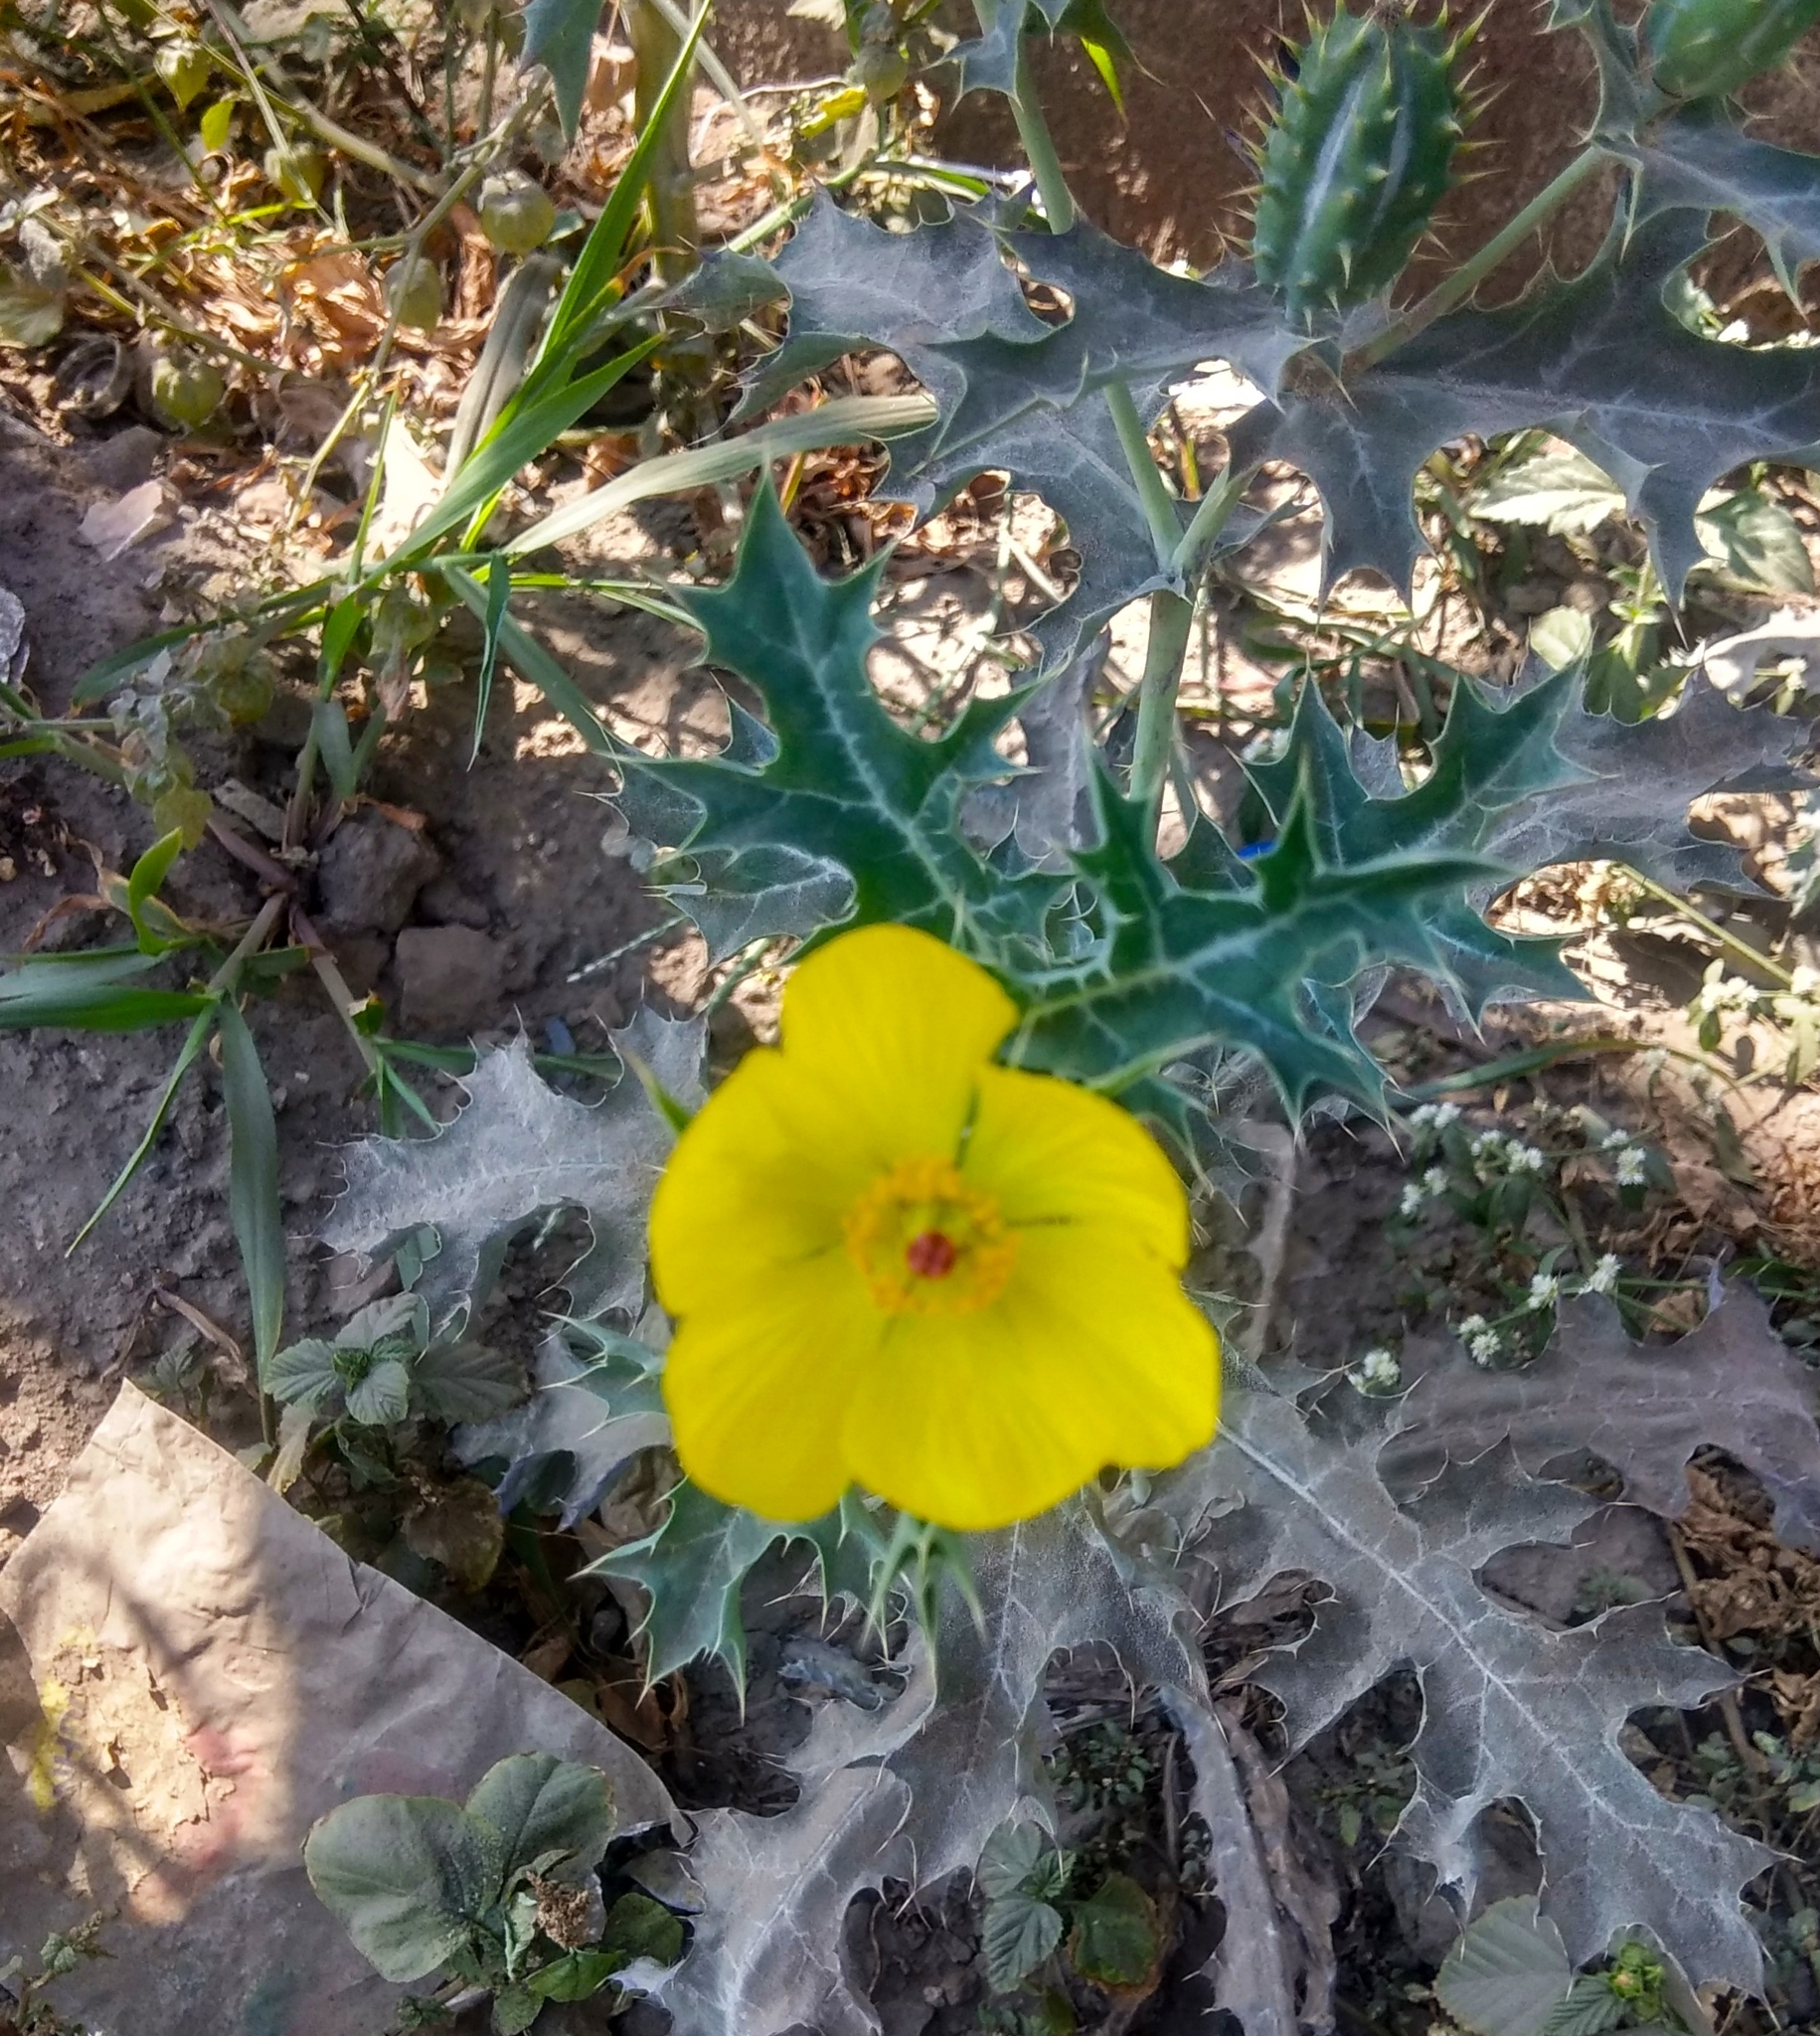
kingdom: Plantae
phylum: Tracheophyta
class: Magnoliopsida
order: Ranunculales
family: Papaveraceae
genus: Argemone
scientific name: Argemone mexicana
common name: Mexican poppy
